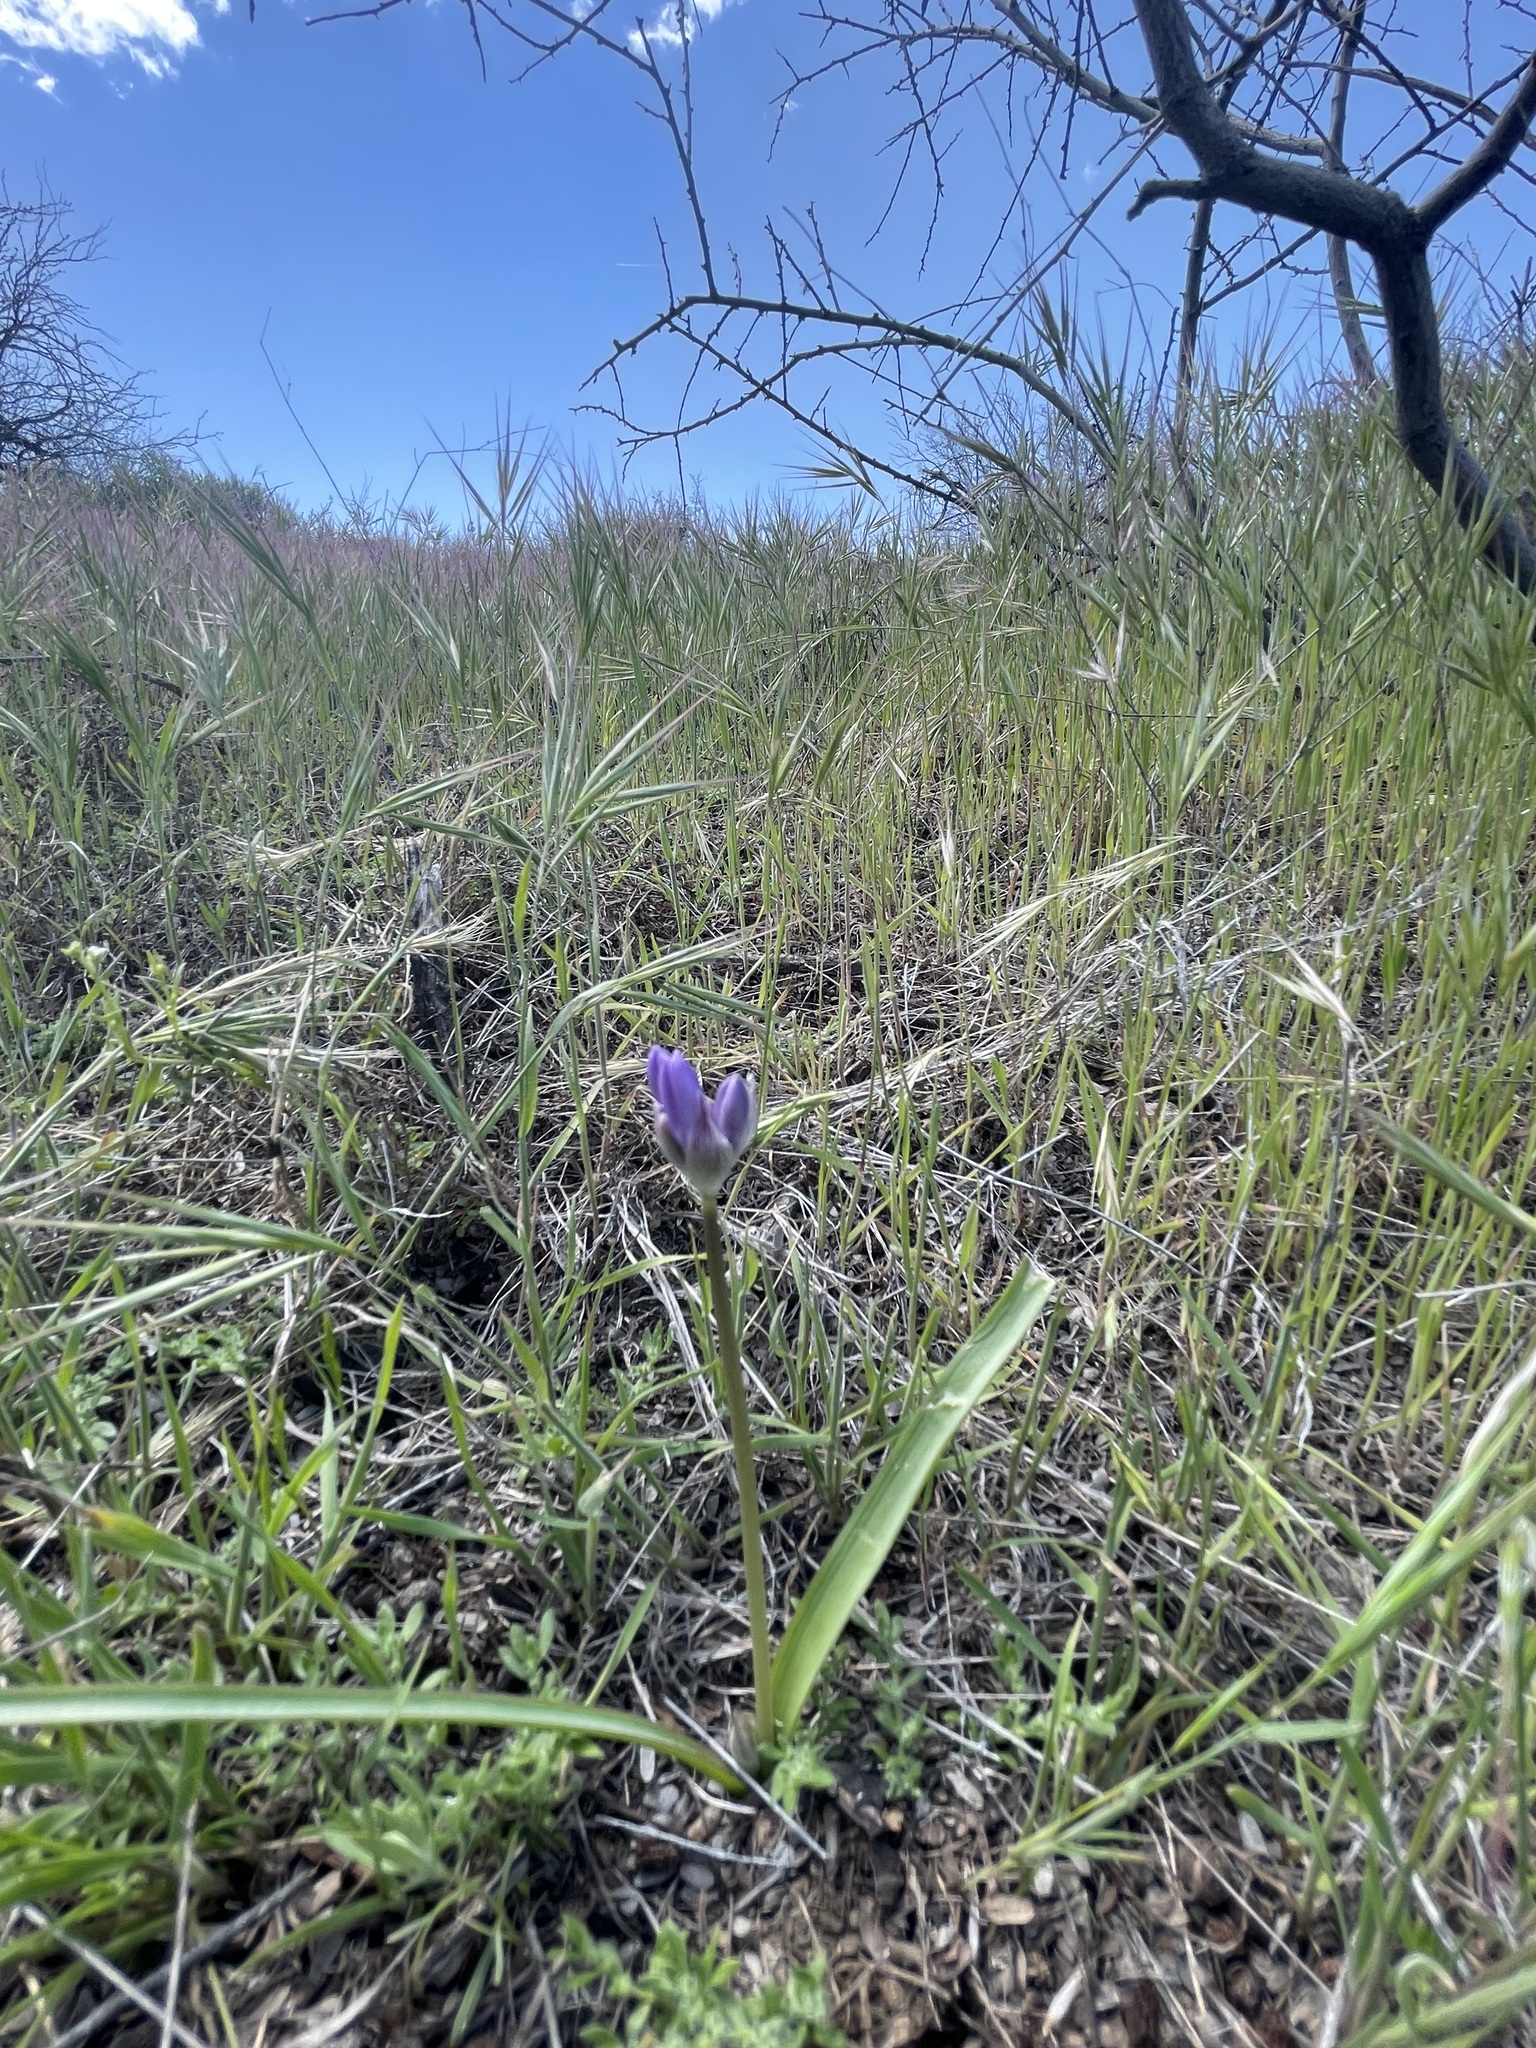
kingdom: Plantae
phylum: Tracheophyta
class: Liliopsida
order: Asparagales
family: Asparagaceae
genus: Dipterostemon
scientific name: Dipterostemon capitatus
